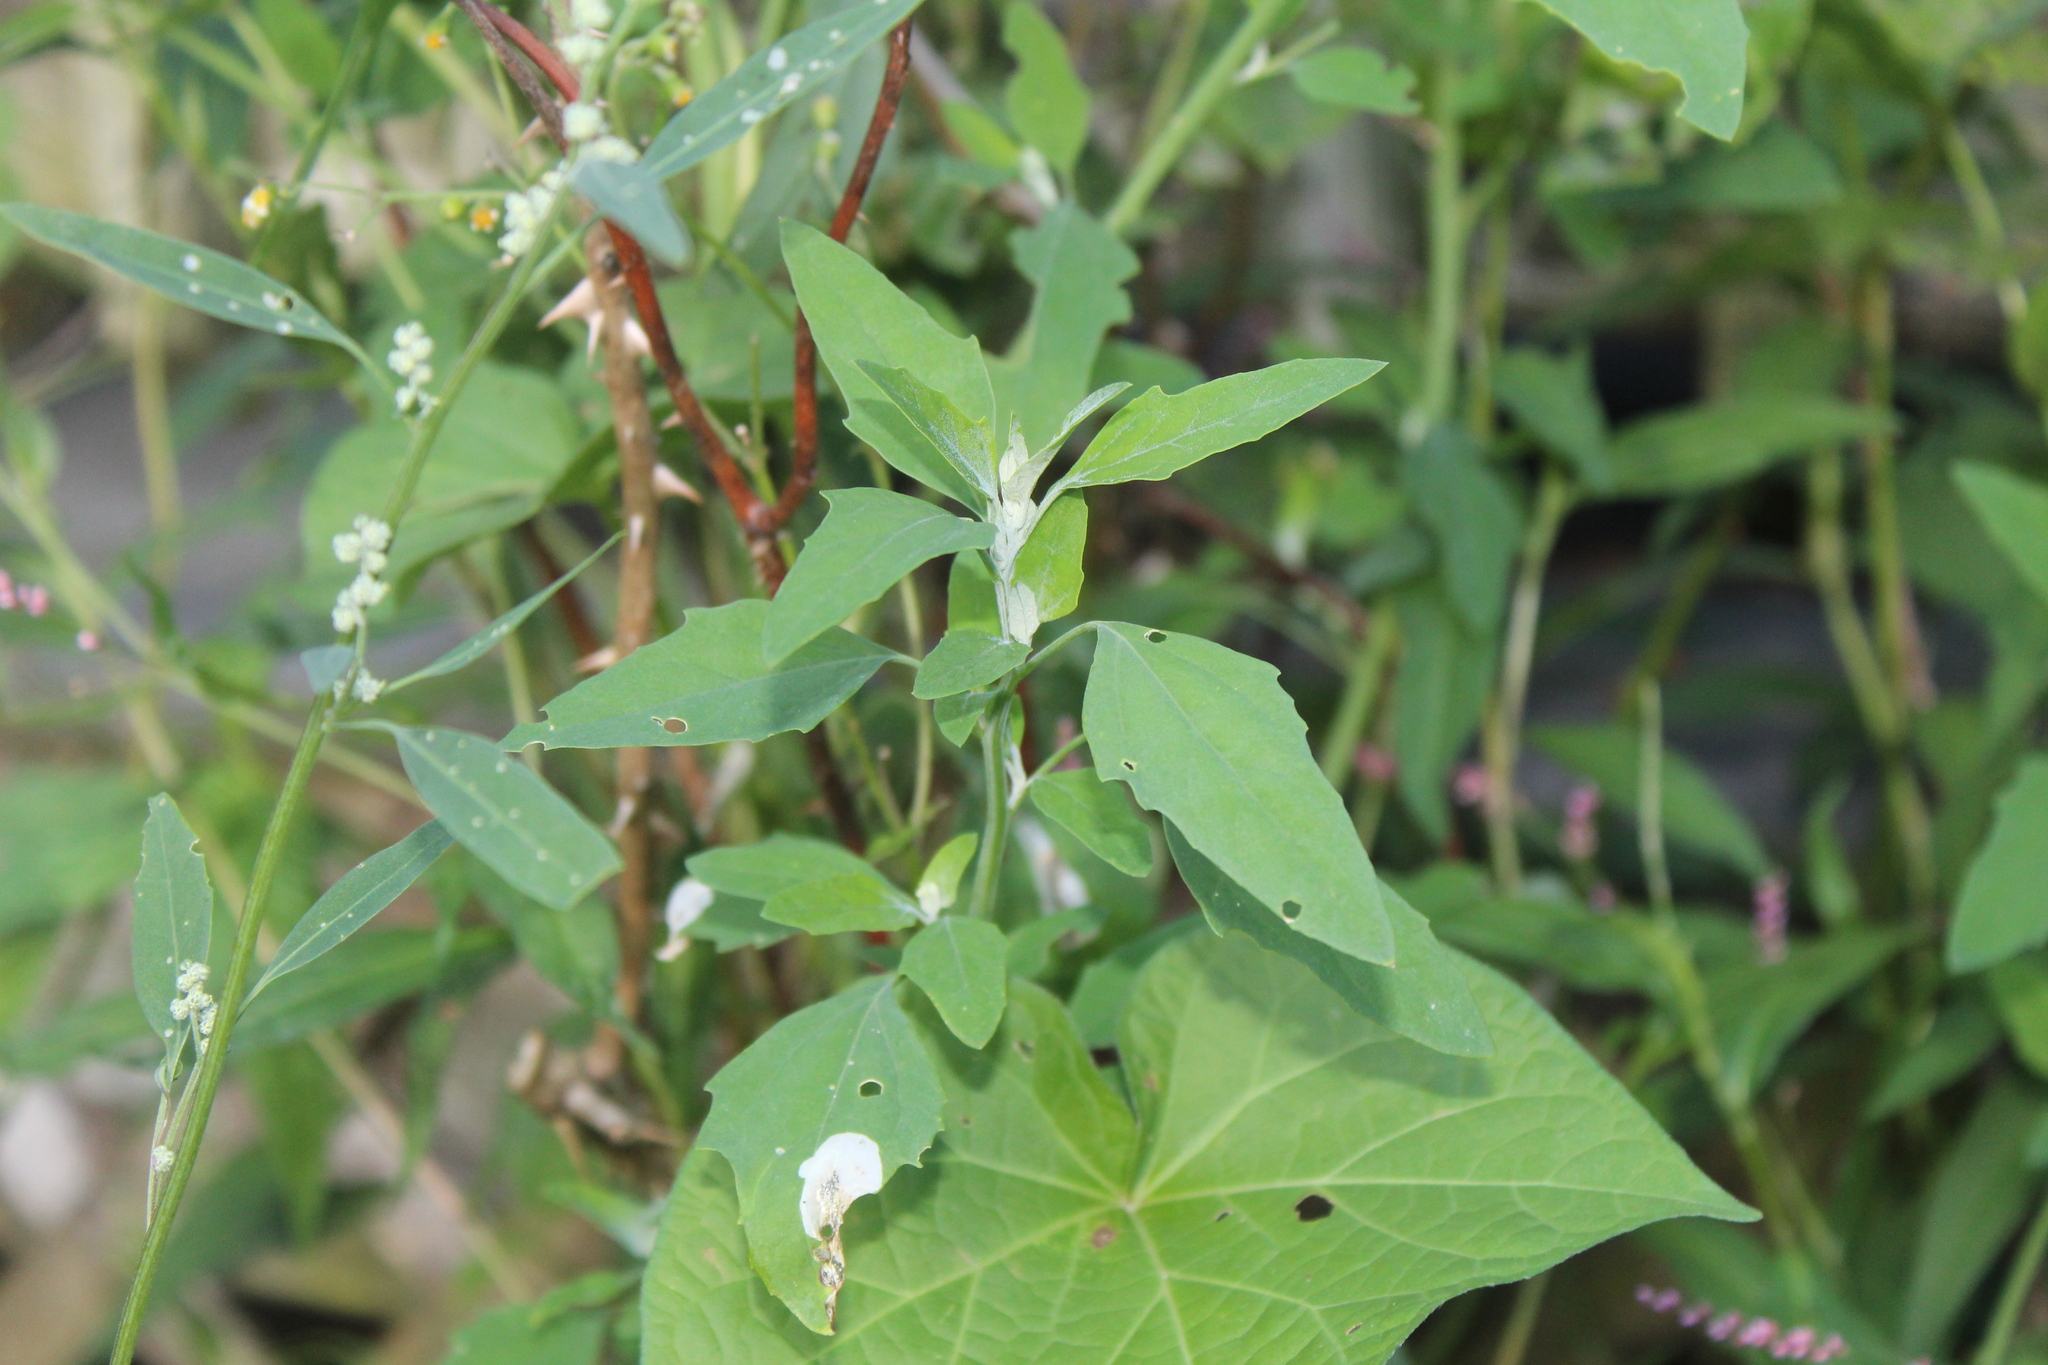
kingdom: Animalia
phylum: Arthropoda
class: Insecta
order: Lepidoptera
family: Gelechiidae
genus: Chrysoesthia
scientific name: Chrysoesthia sexguttella
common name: Moth
